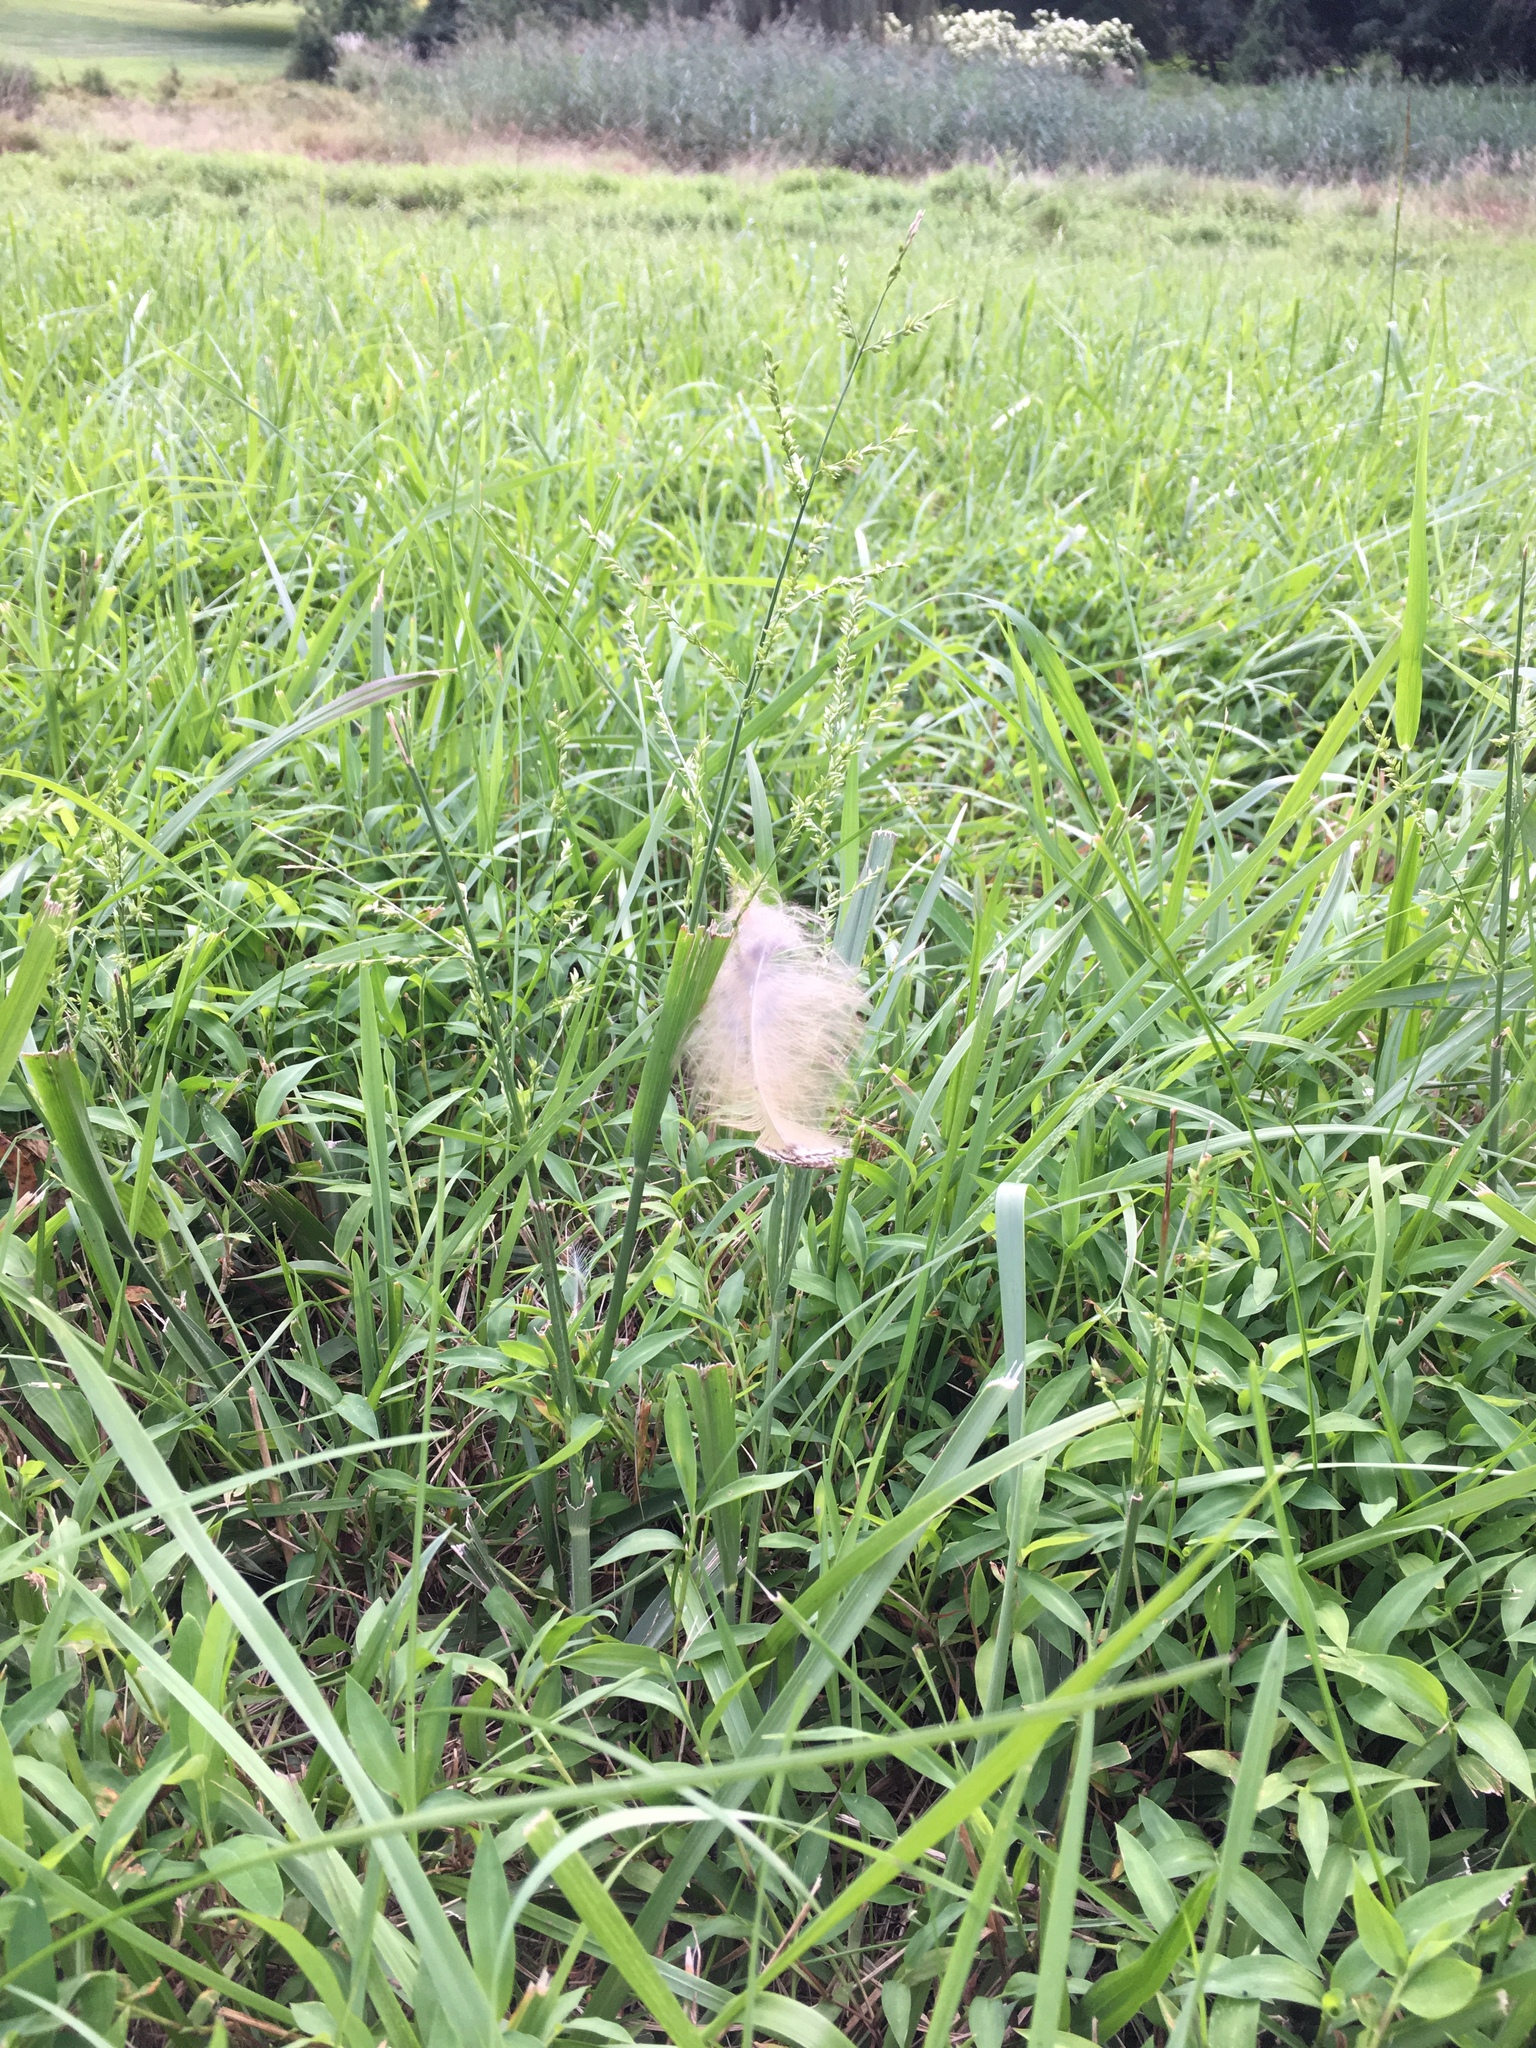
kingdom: Animalia
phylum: Chordata
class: Aves
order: Strigiformes
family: Strigidae
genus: Bubo
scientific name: Bubo virginianus
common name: Great horned owl
